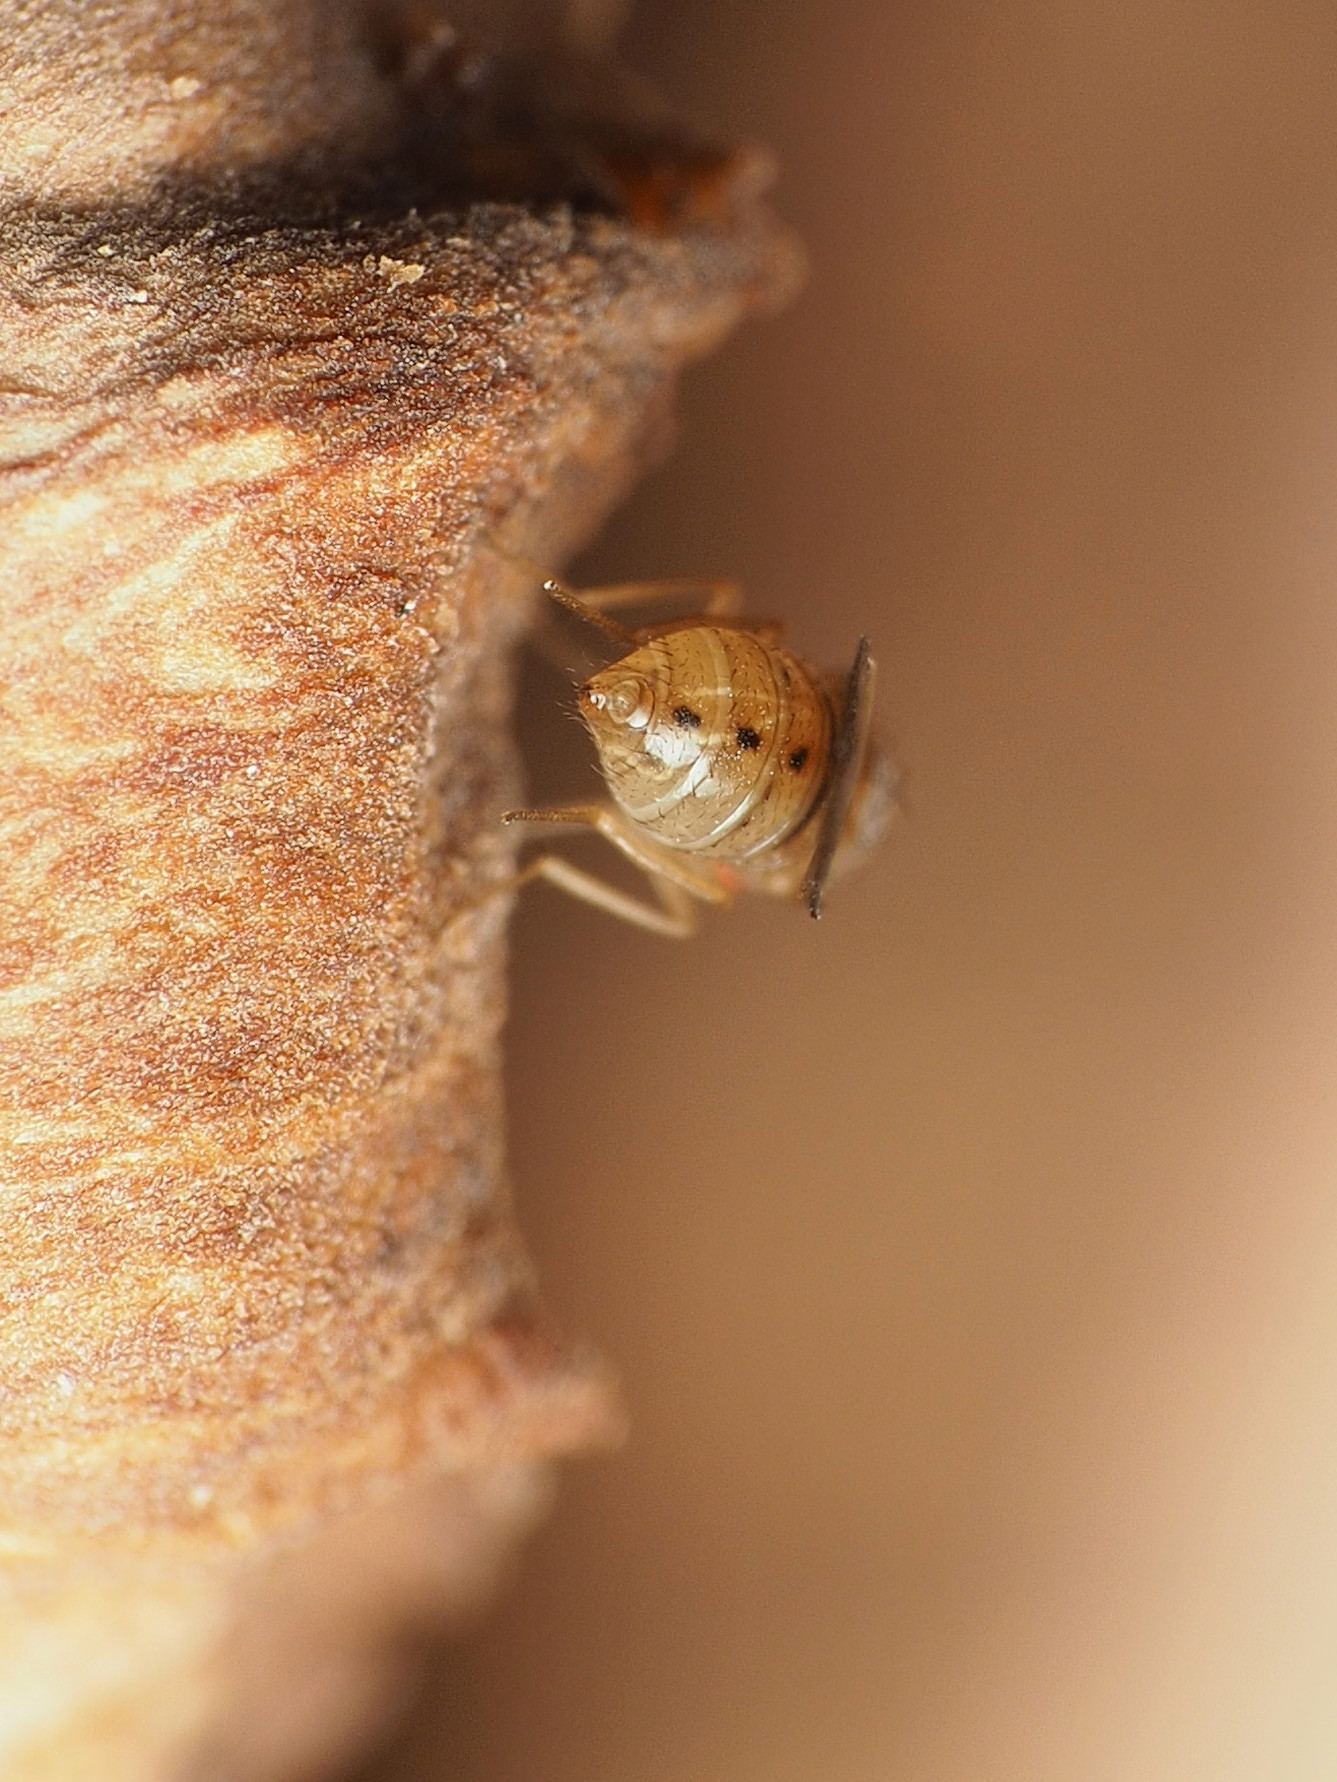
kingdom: Animalia
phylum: Arthropoda
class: Insecta
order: Diptera
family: Drosophilidae
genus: Drosophila
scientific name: Drosophila tripunctata
